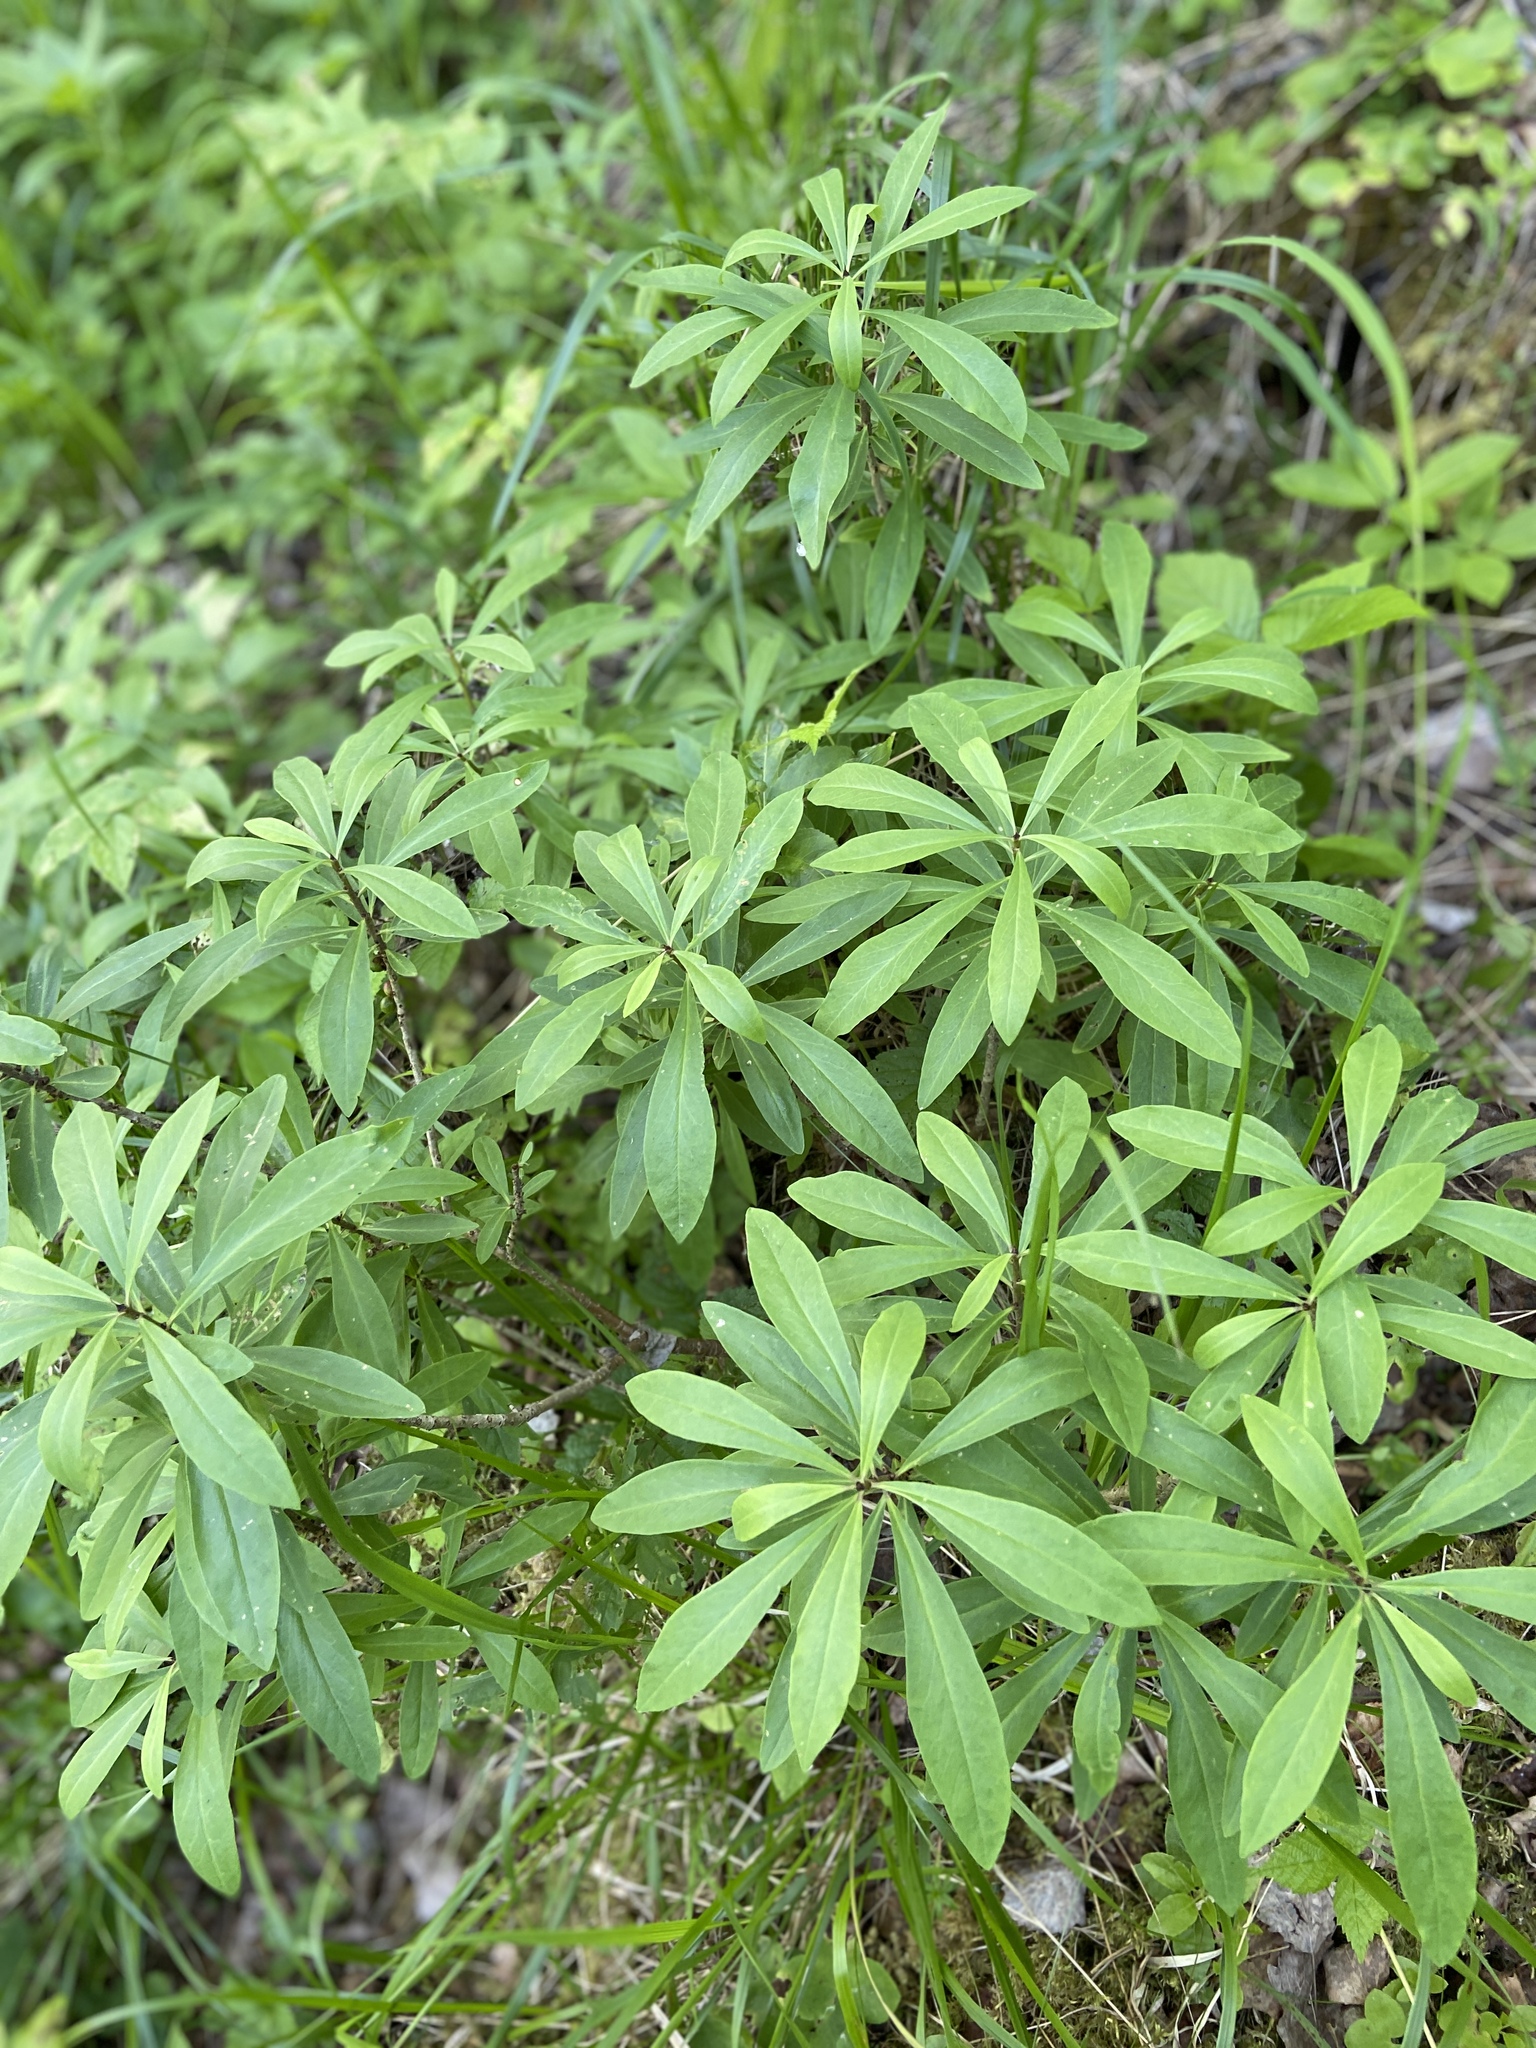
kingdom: Plantae
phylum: Tracheophyta
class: Magnoliopsida
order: Malvales
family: Thymelaeaceae
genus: Daphne
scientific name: Daphne mezereum
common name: Mezereon
